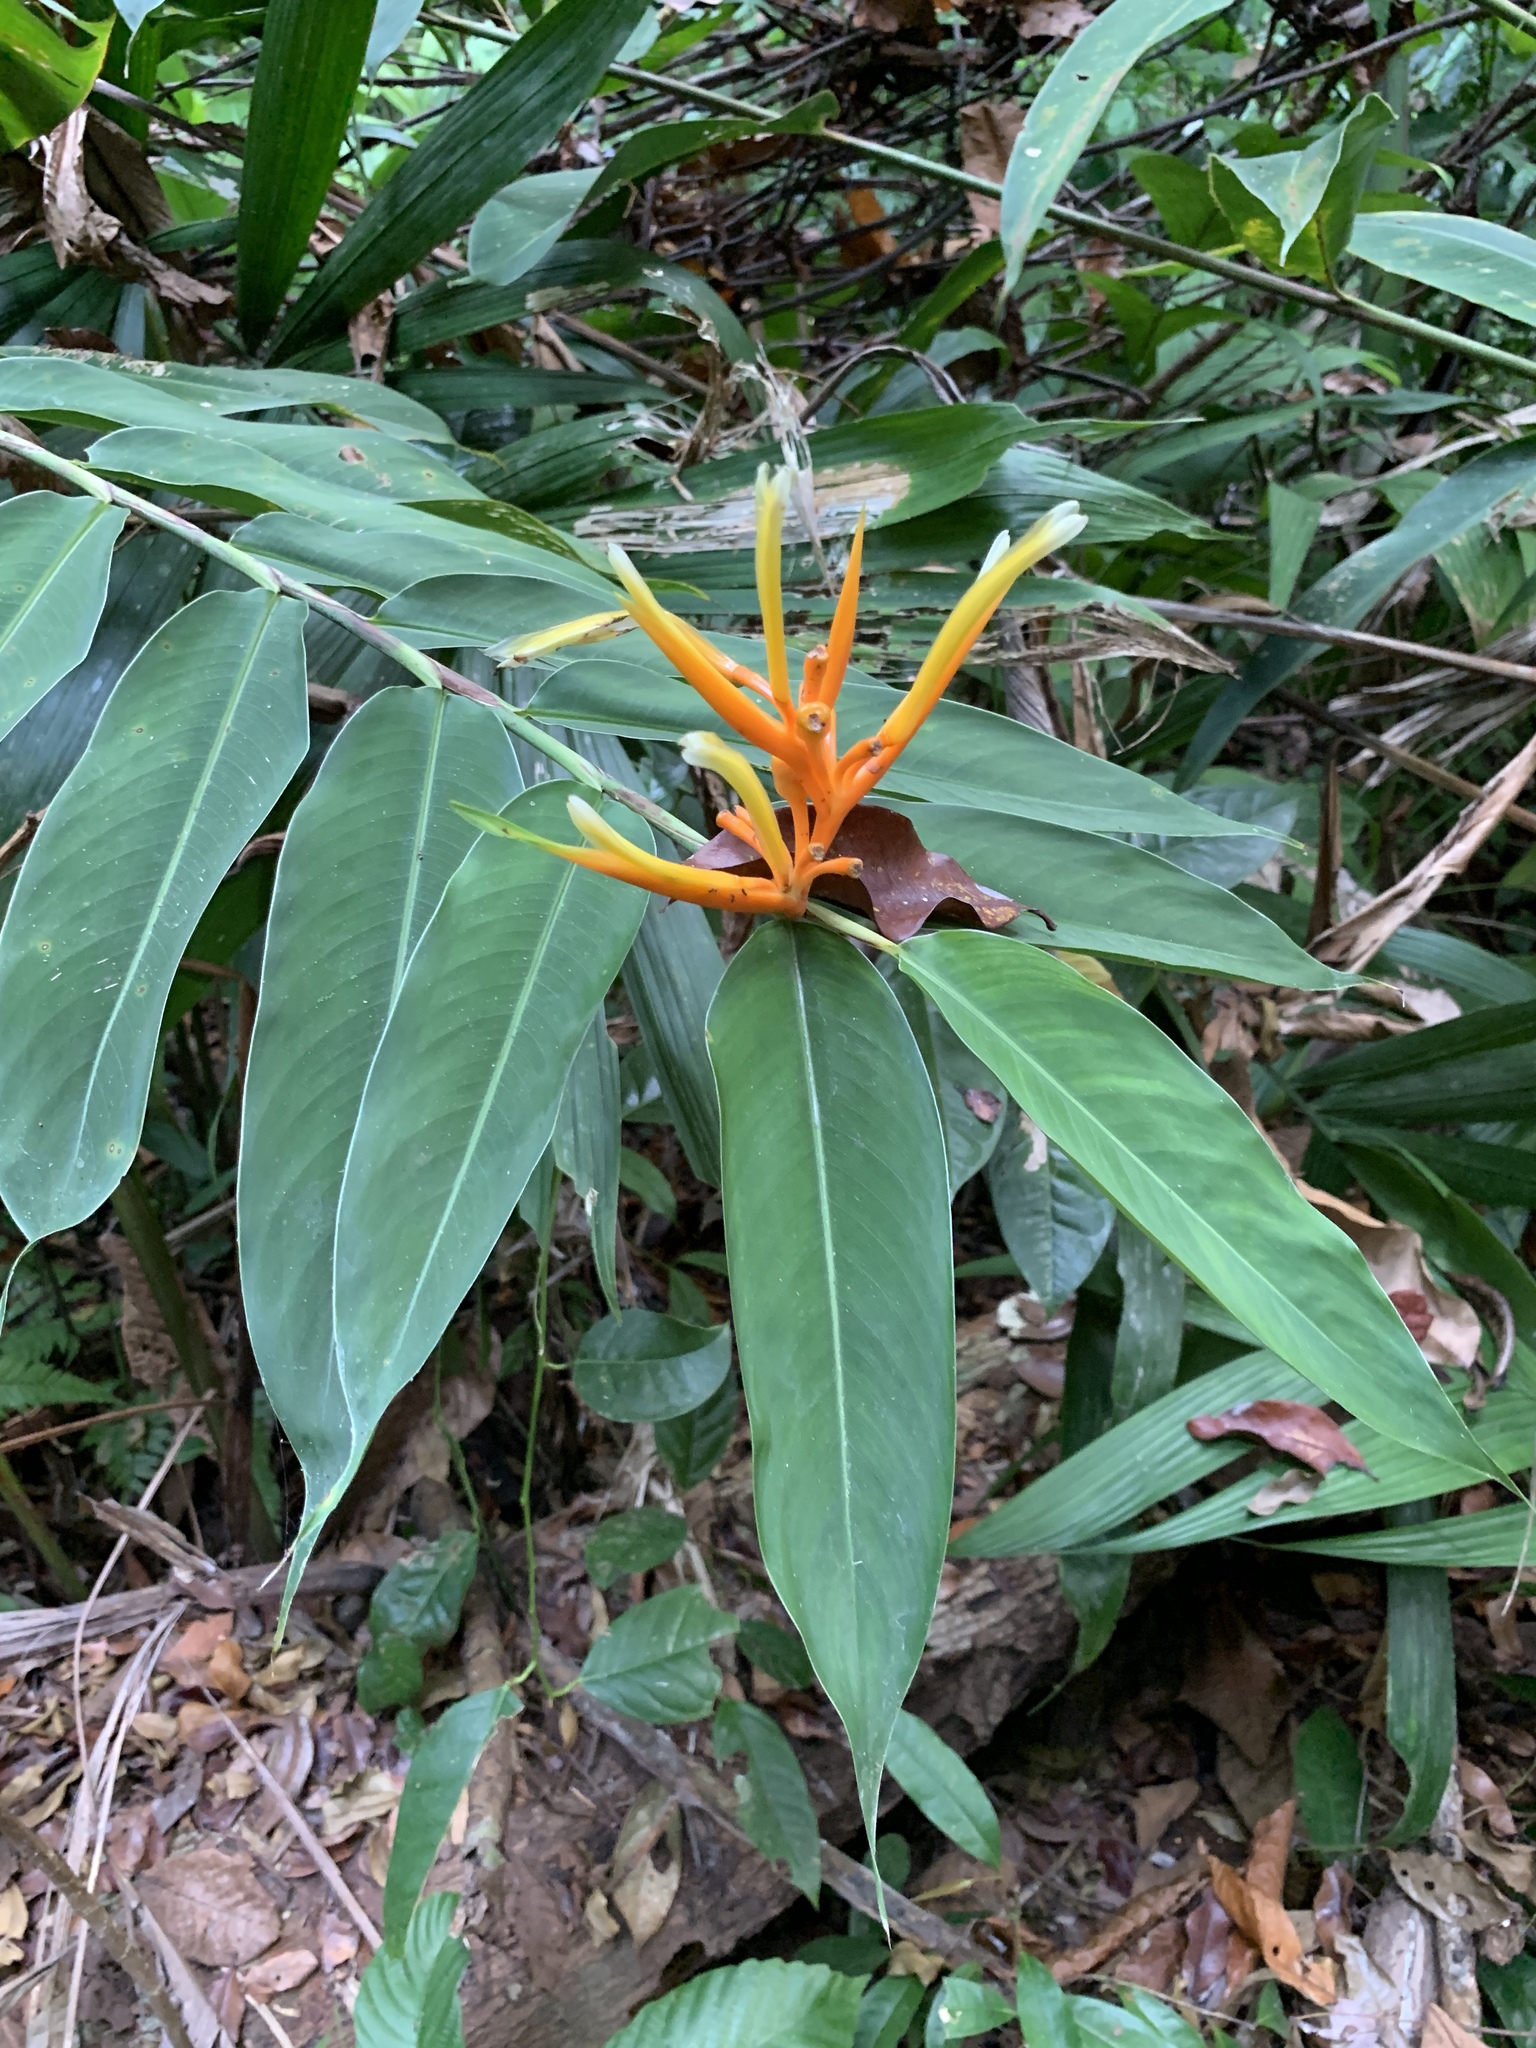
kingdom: Plantae
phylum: Tracheophyta
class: Liliopsida
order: Zingiberales
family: Heliconiaceae
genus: Heliconia
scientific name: Heliconia longiflora
